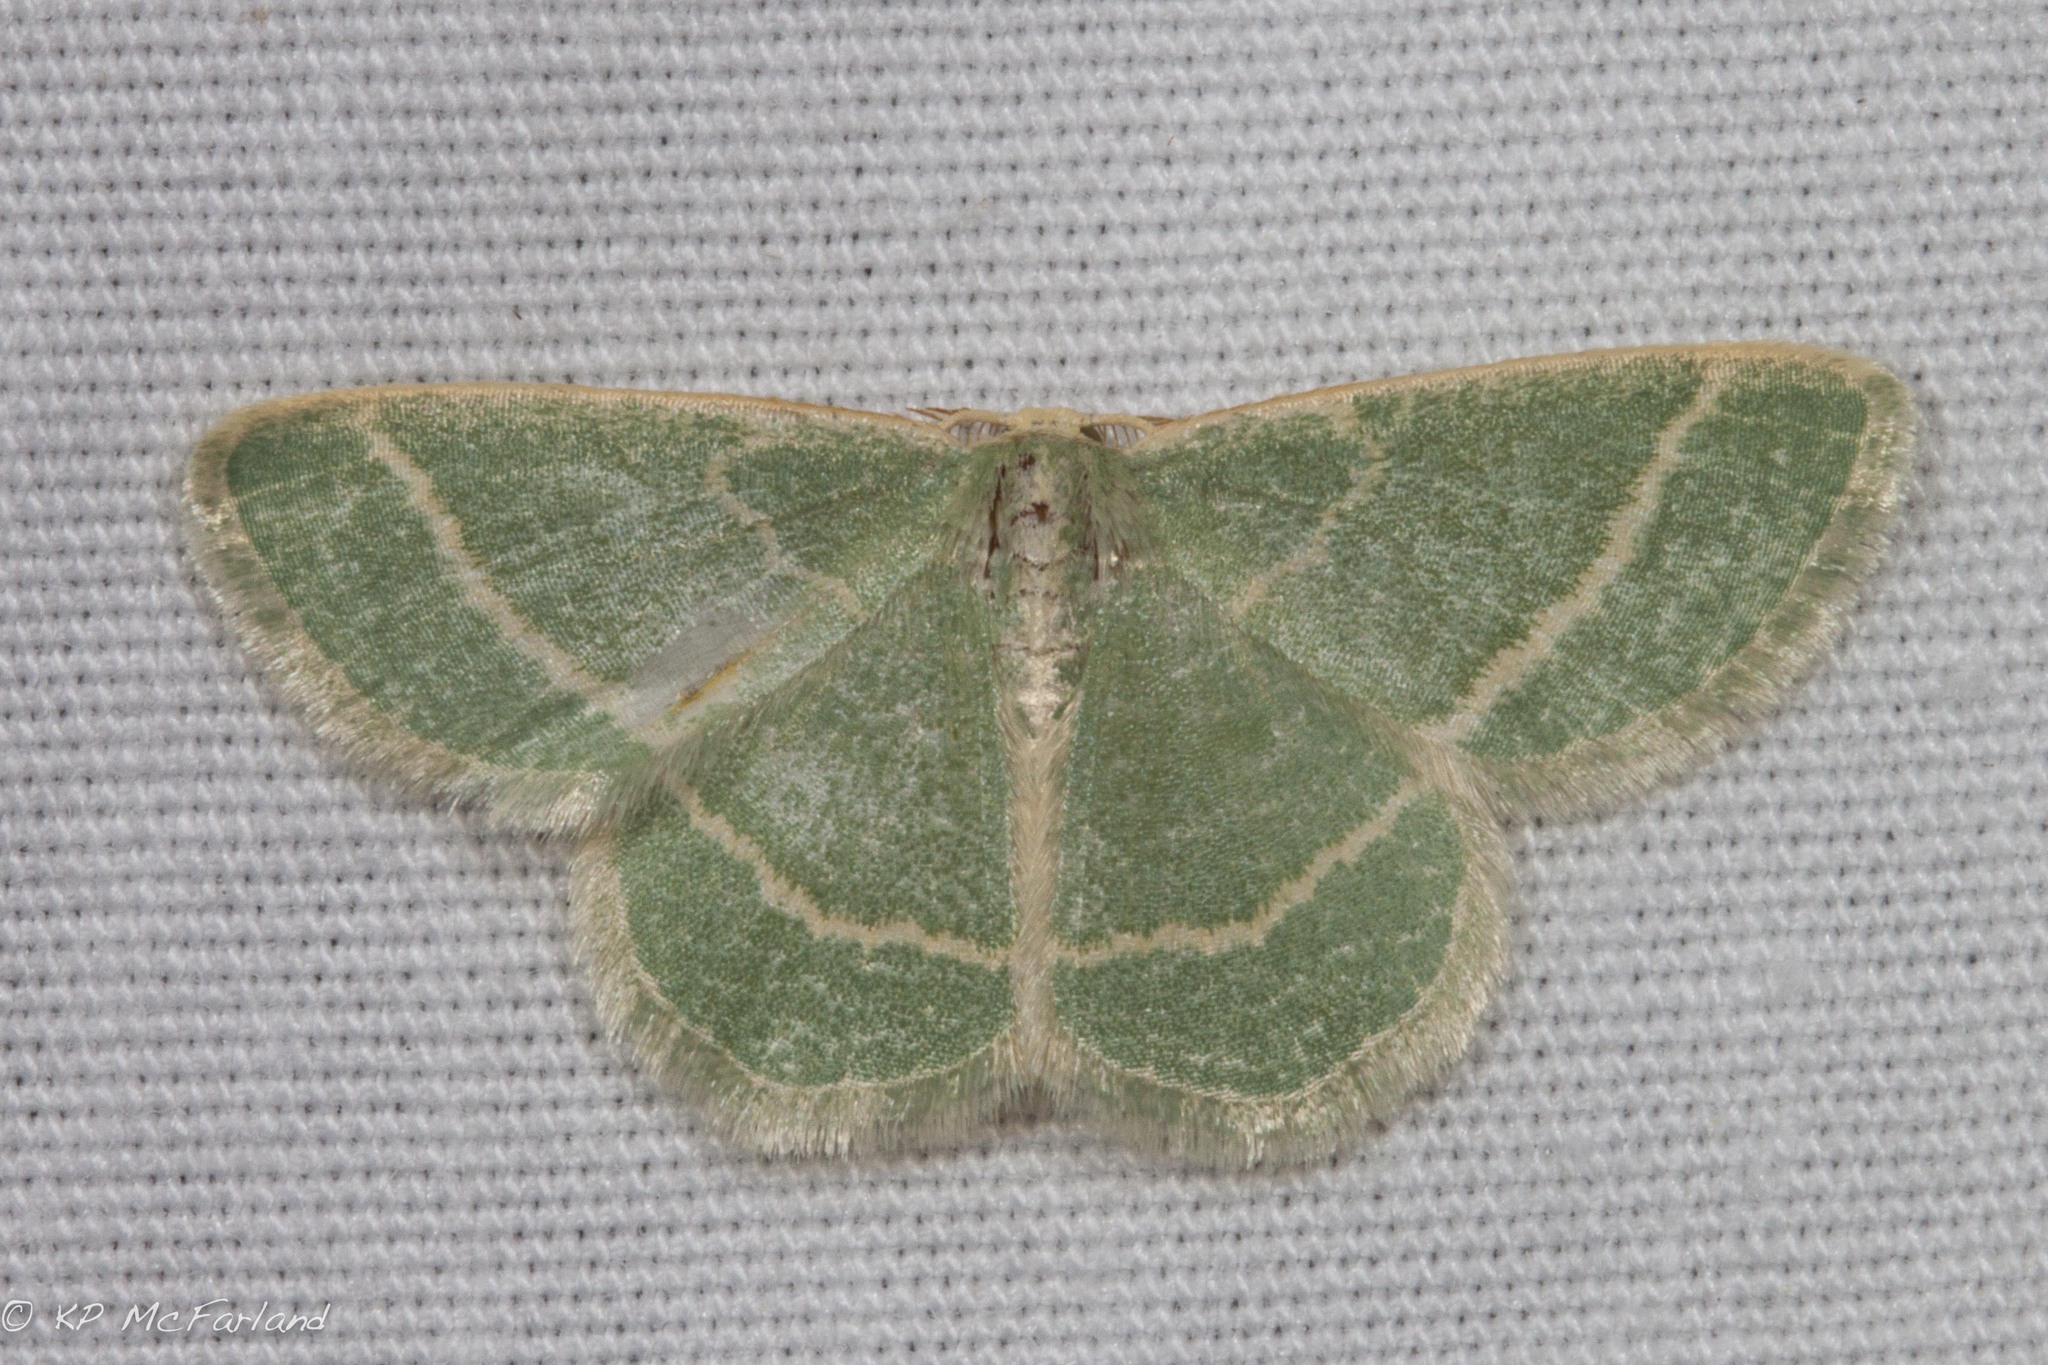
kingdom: Animalia
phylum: Arthropoda
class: Insecta
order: Lepidoptera
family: Geometridae
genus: Chlorochlamys
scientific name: Chlorochlamys chloroleucaria
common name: Blackberry looper
